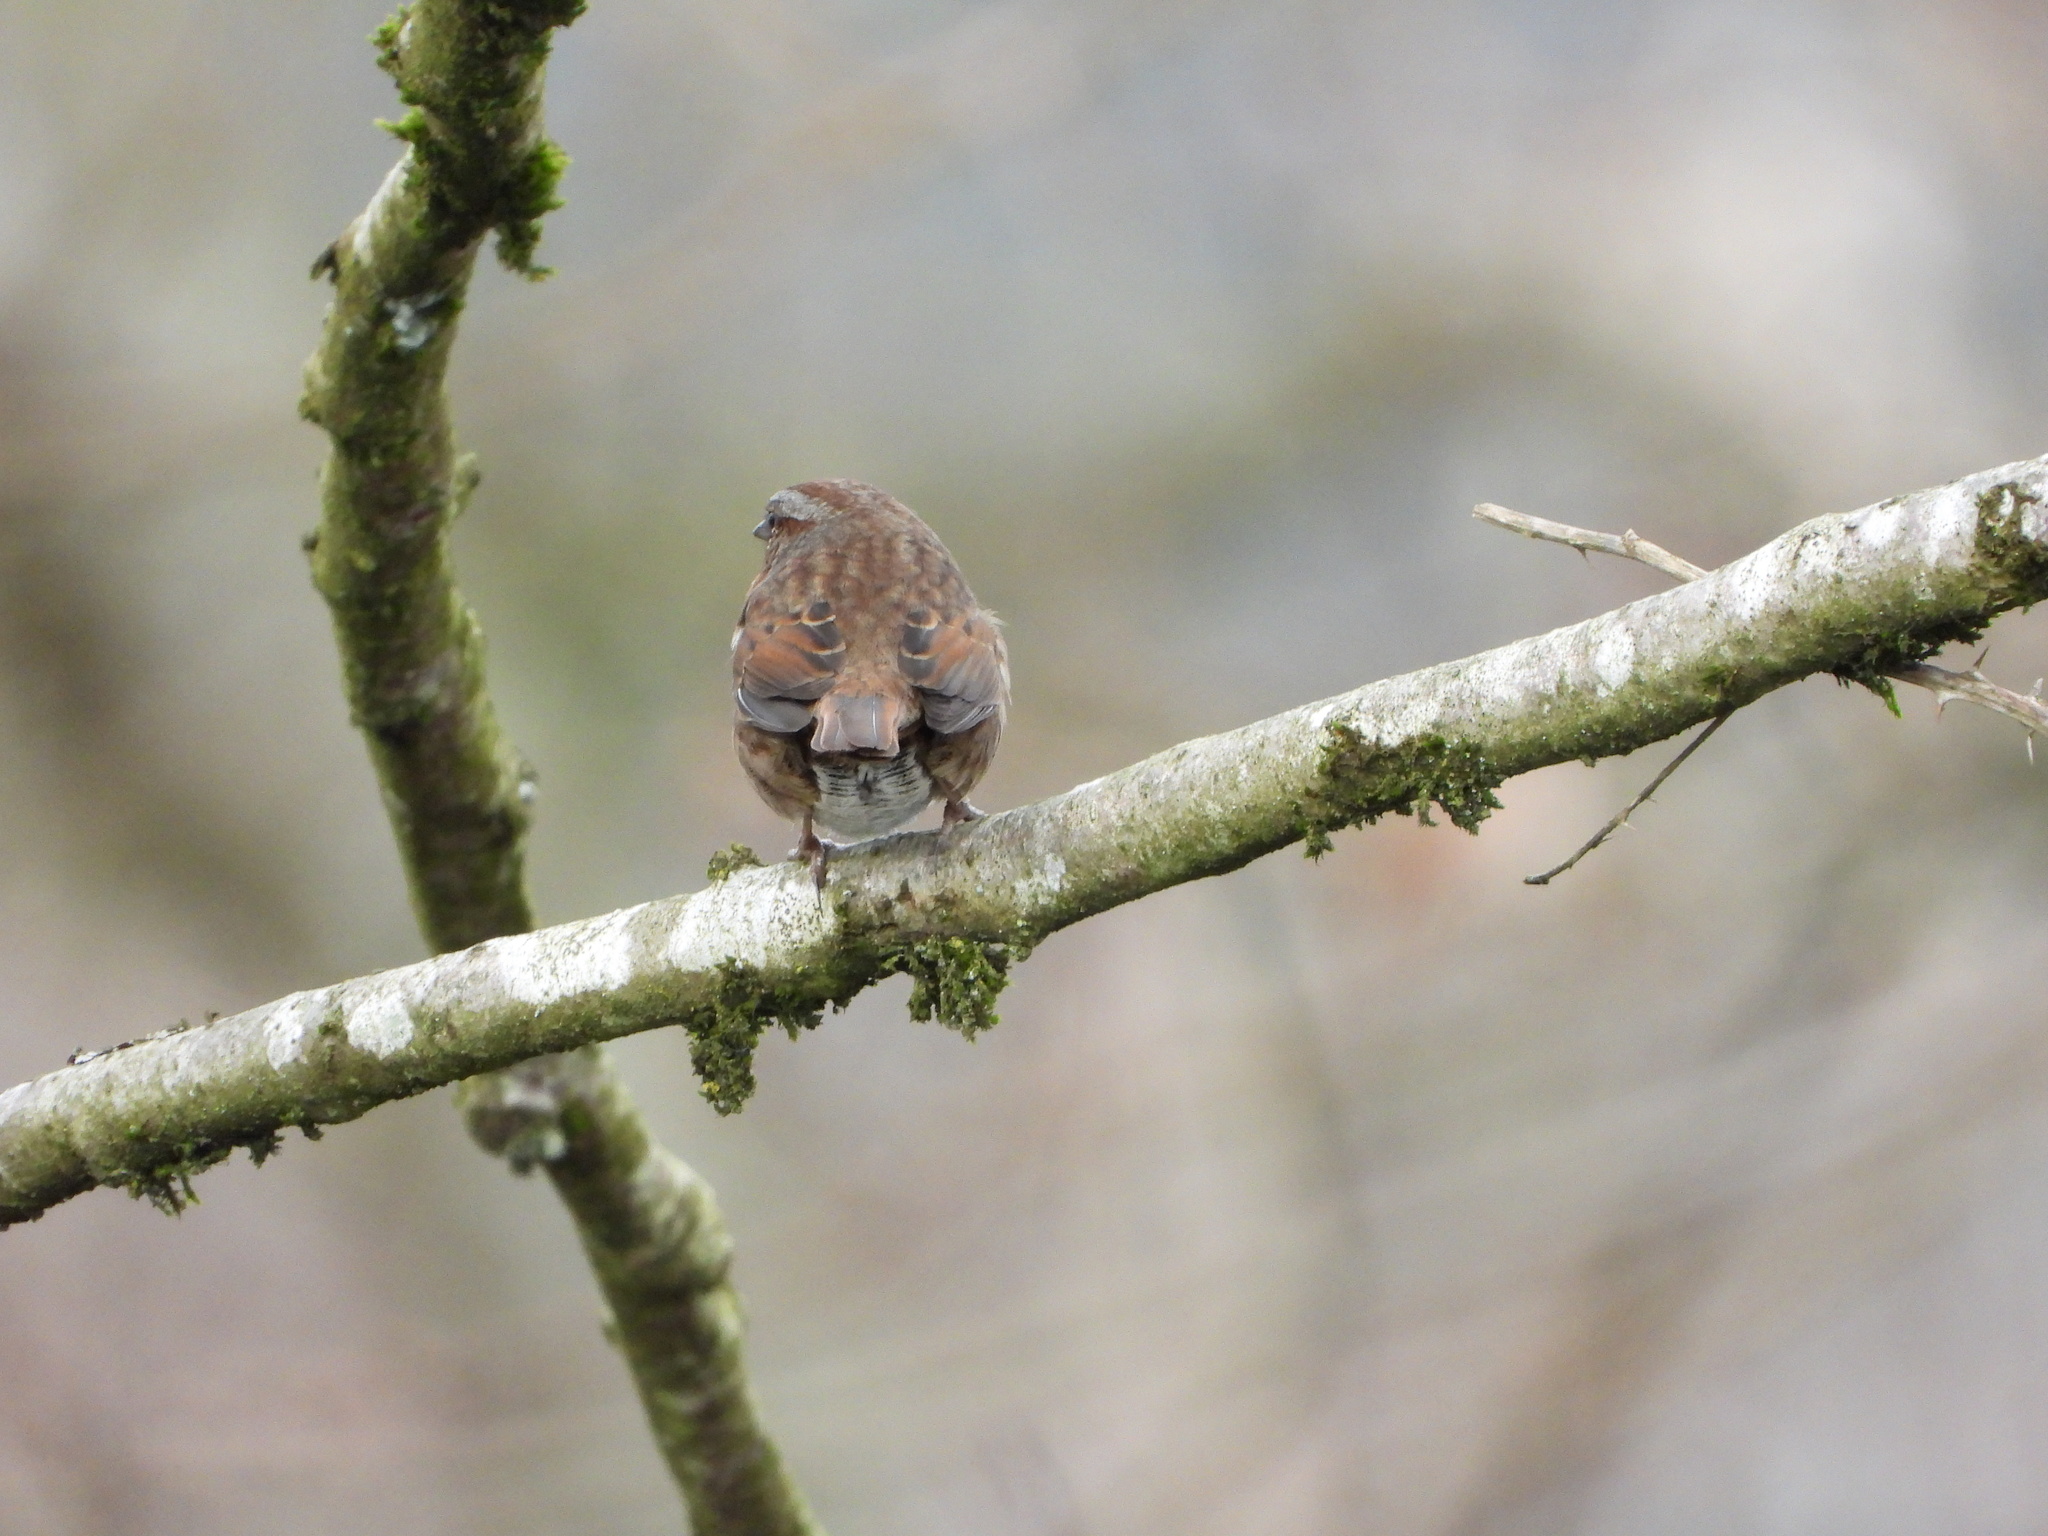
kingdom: Animalia
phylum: Chordata
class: Aves
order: Passeriformes
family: Passerellidae
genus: Melospiza
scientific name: Melospiza melodia
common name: Song sparrow
